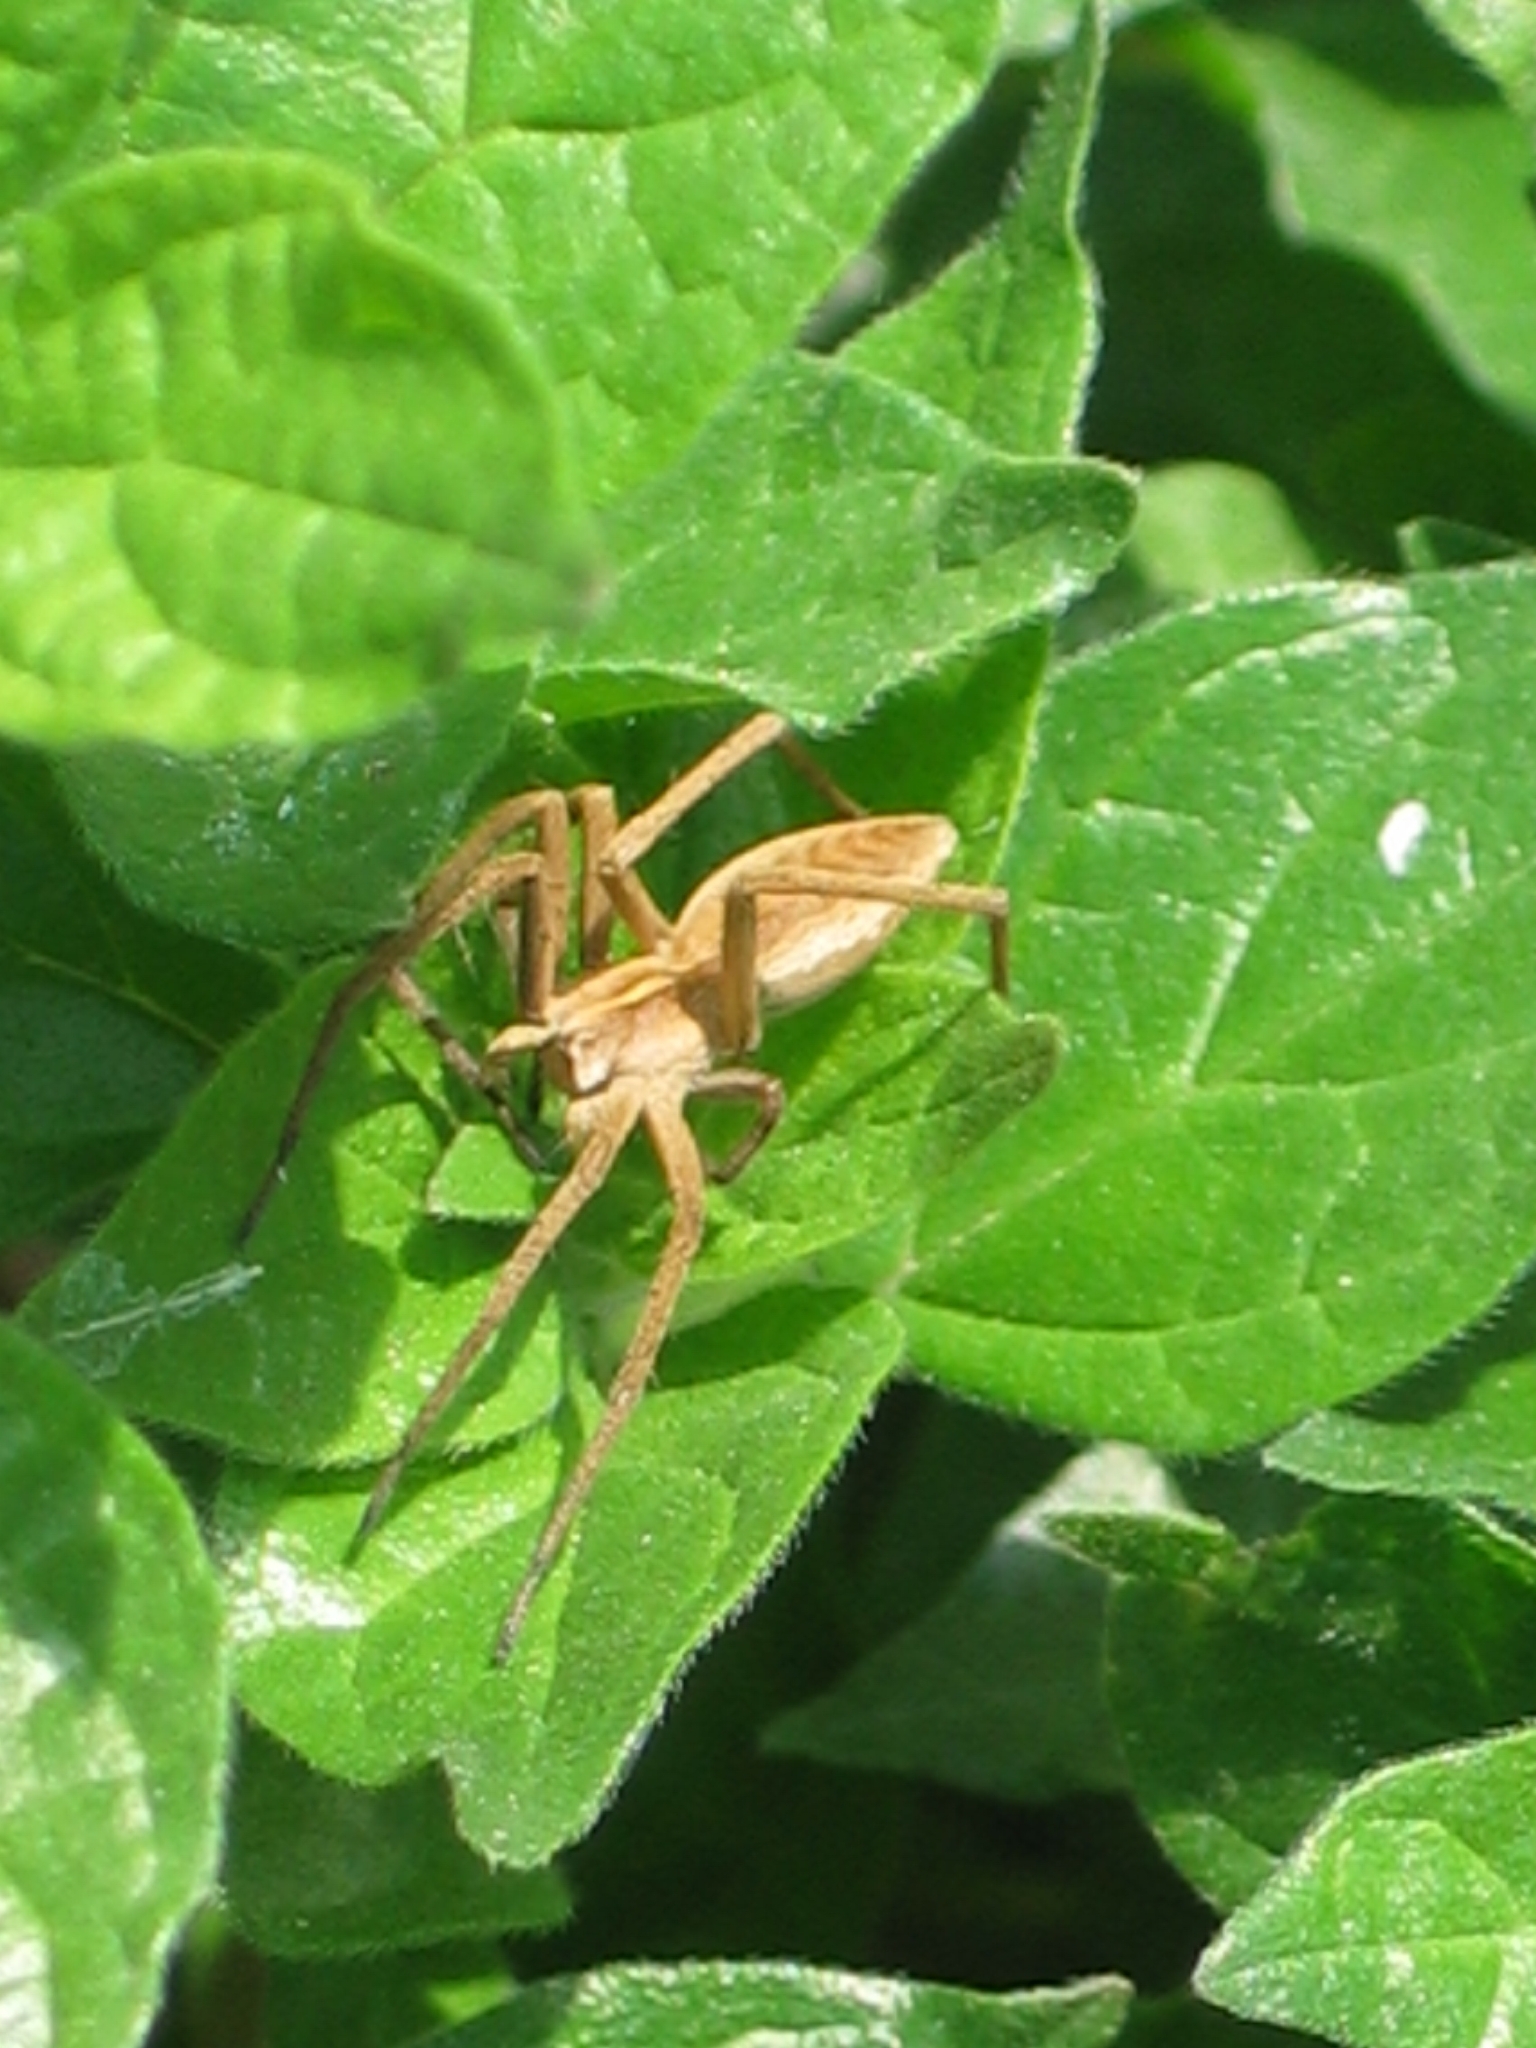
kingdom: Animalia
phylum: Arthropoda
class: Arachnida
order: Araneae
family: Pisauridae
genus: Pisaura
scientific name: Pisaura mirabilis
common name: Tent spider
